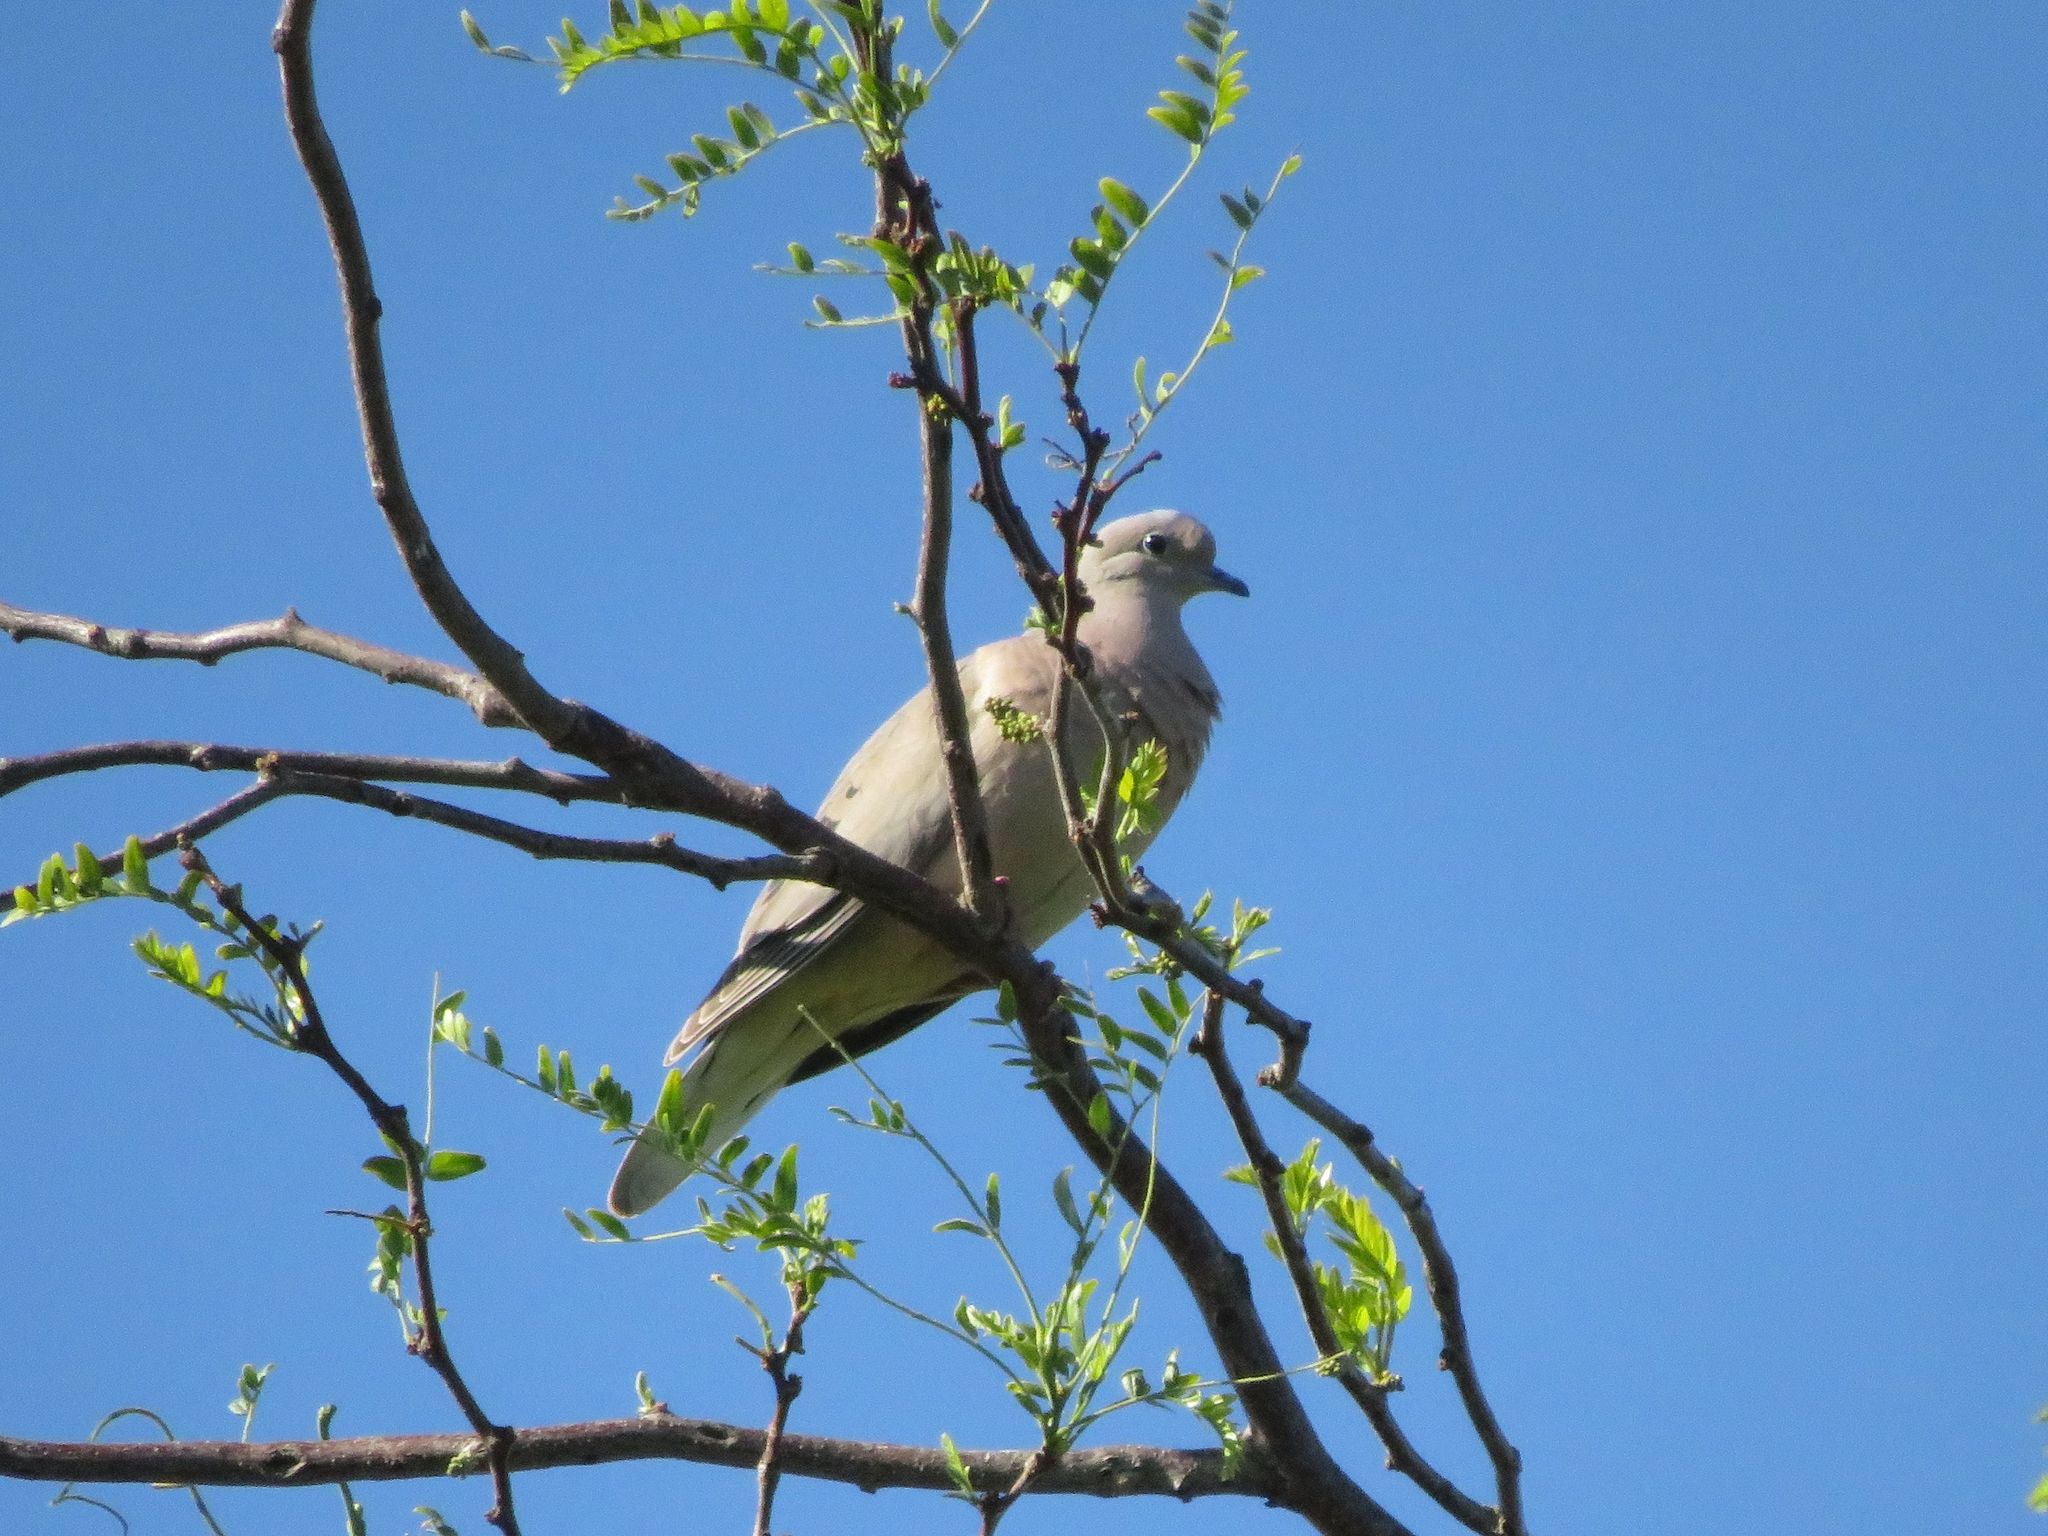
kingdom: Animalia
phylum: Chordata
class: Aves
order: Columbiformes
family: Columbidae
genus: Zenaida
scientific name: Zenaida auriculata
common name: Eared dove
